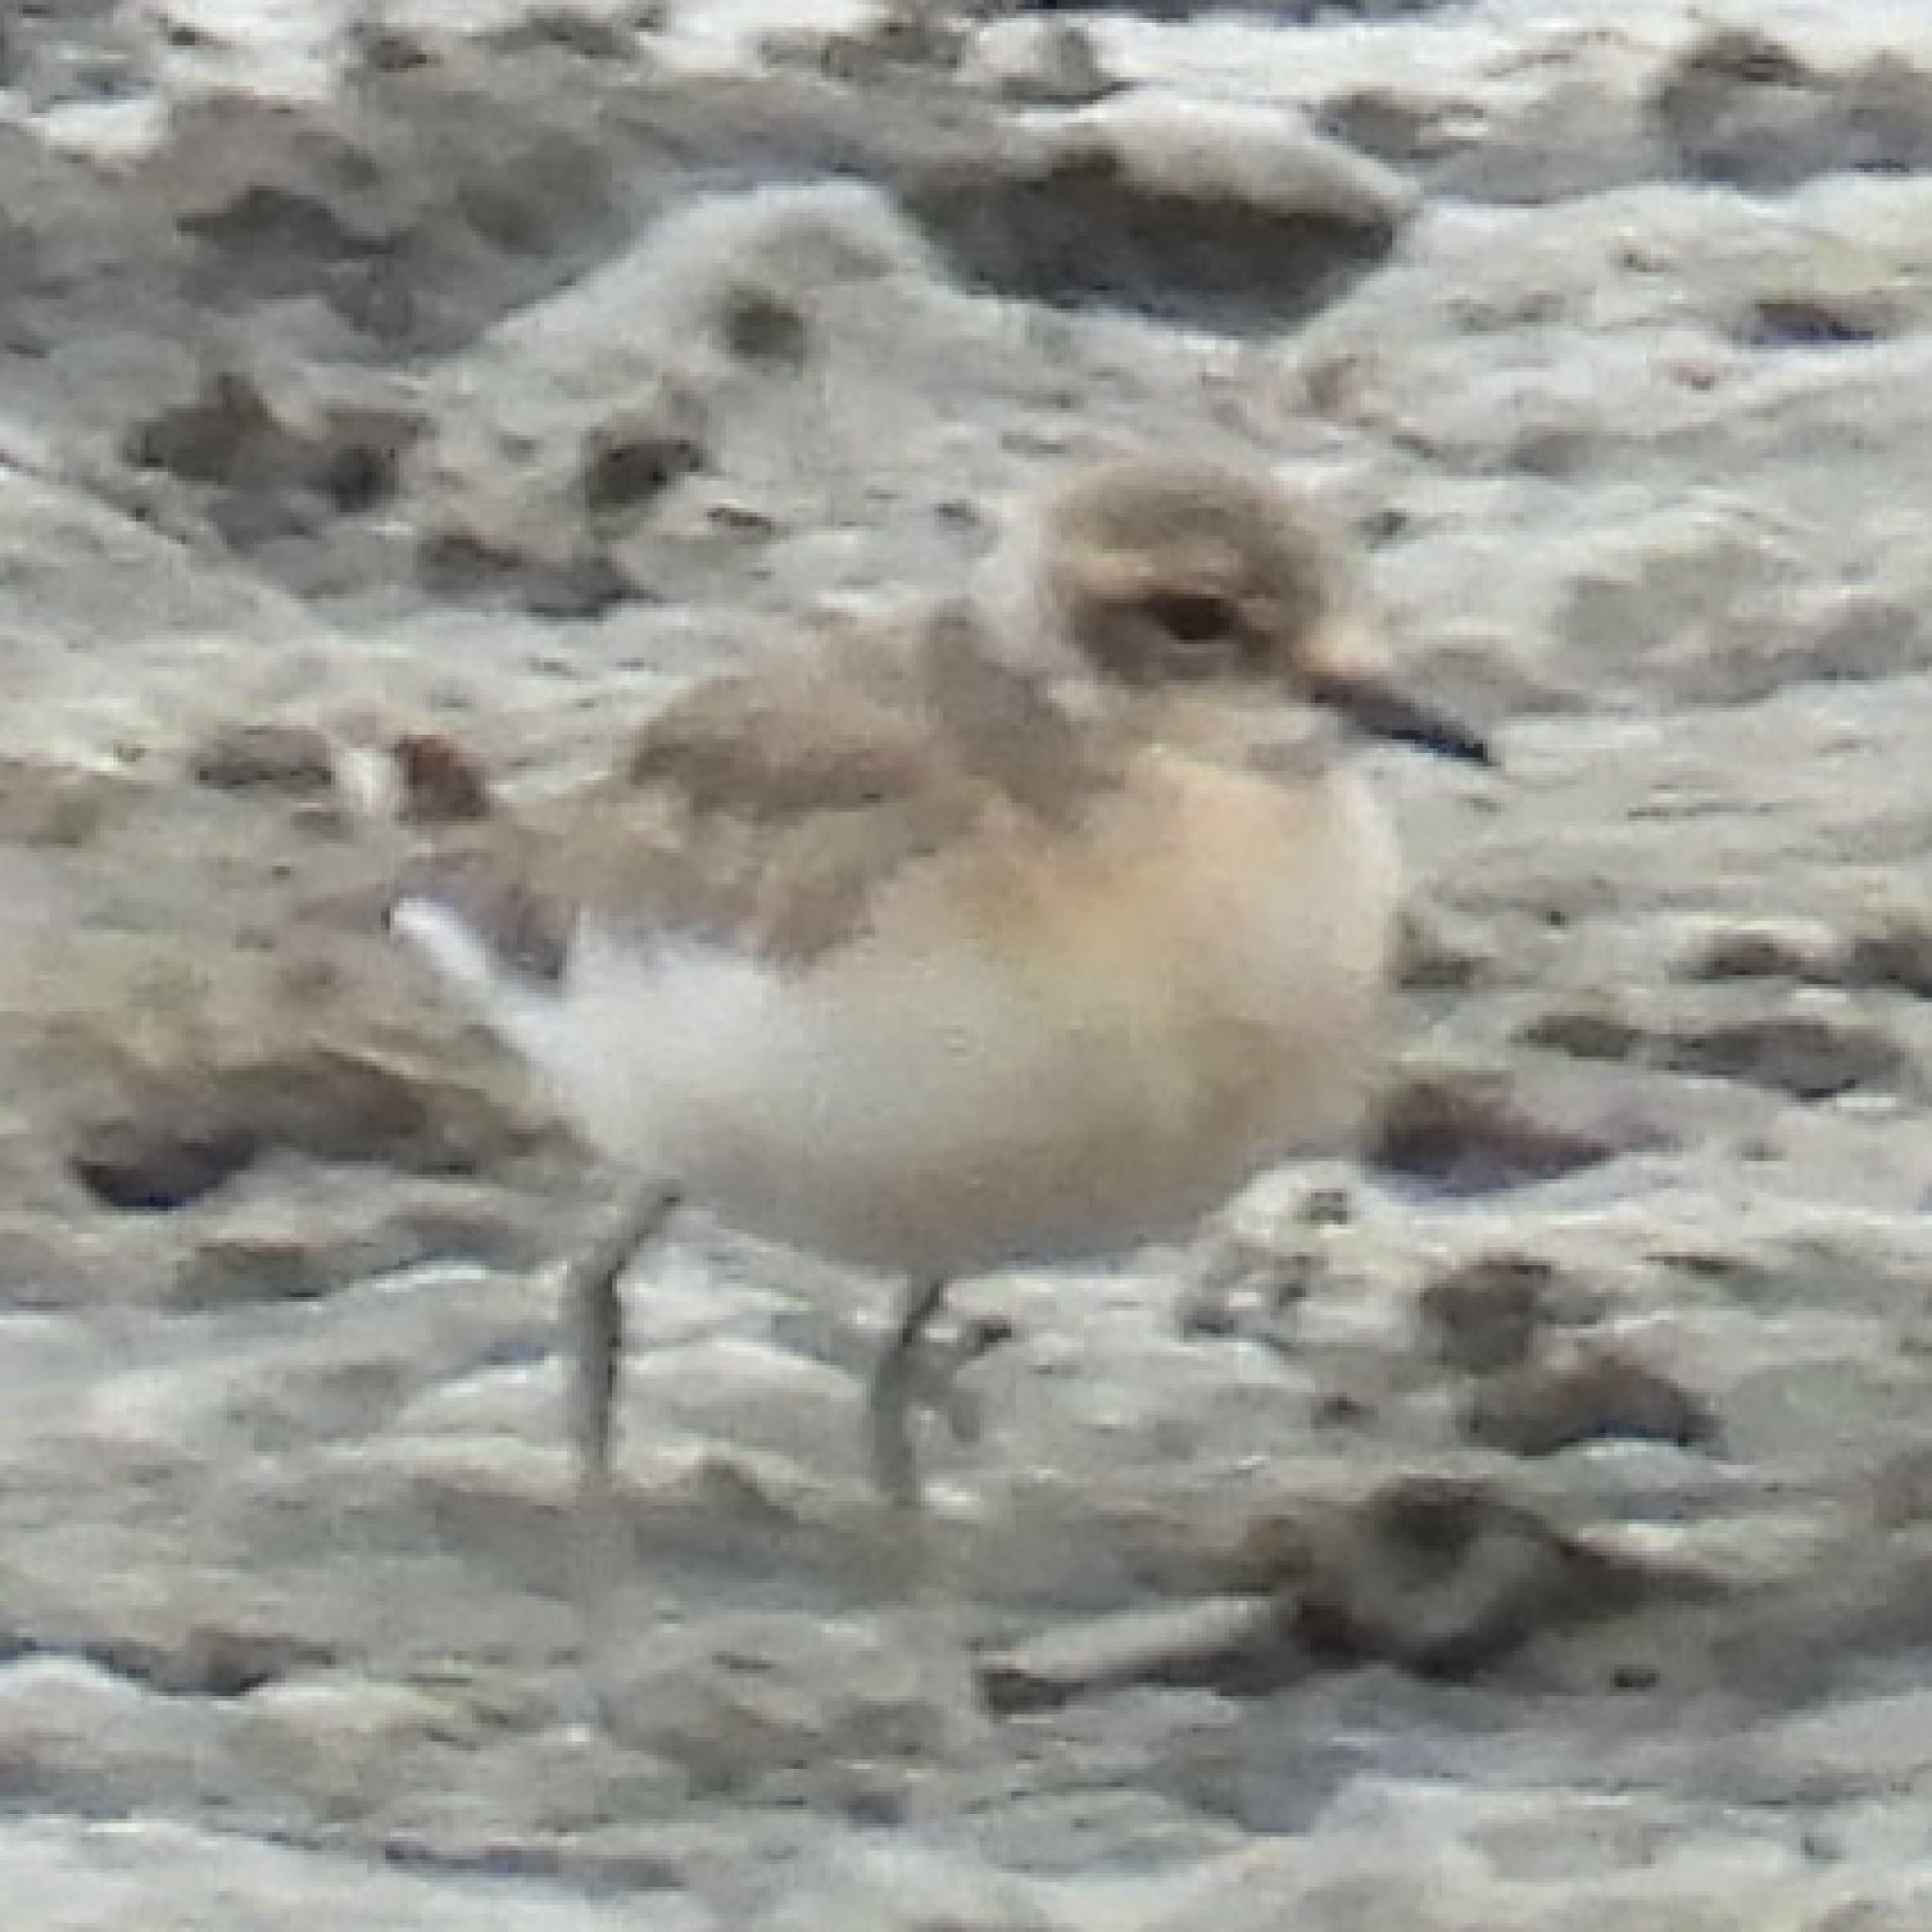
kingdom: Animalia
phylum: Chordata
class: Aves
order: Charadriiformes
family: Charadriidae
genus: Anarhynchus
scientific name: Anarhynchus
